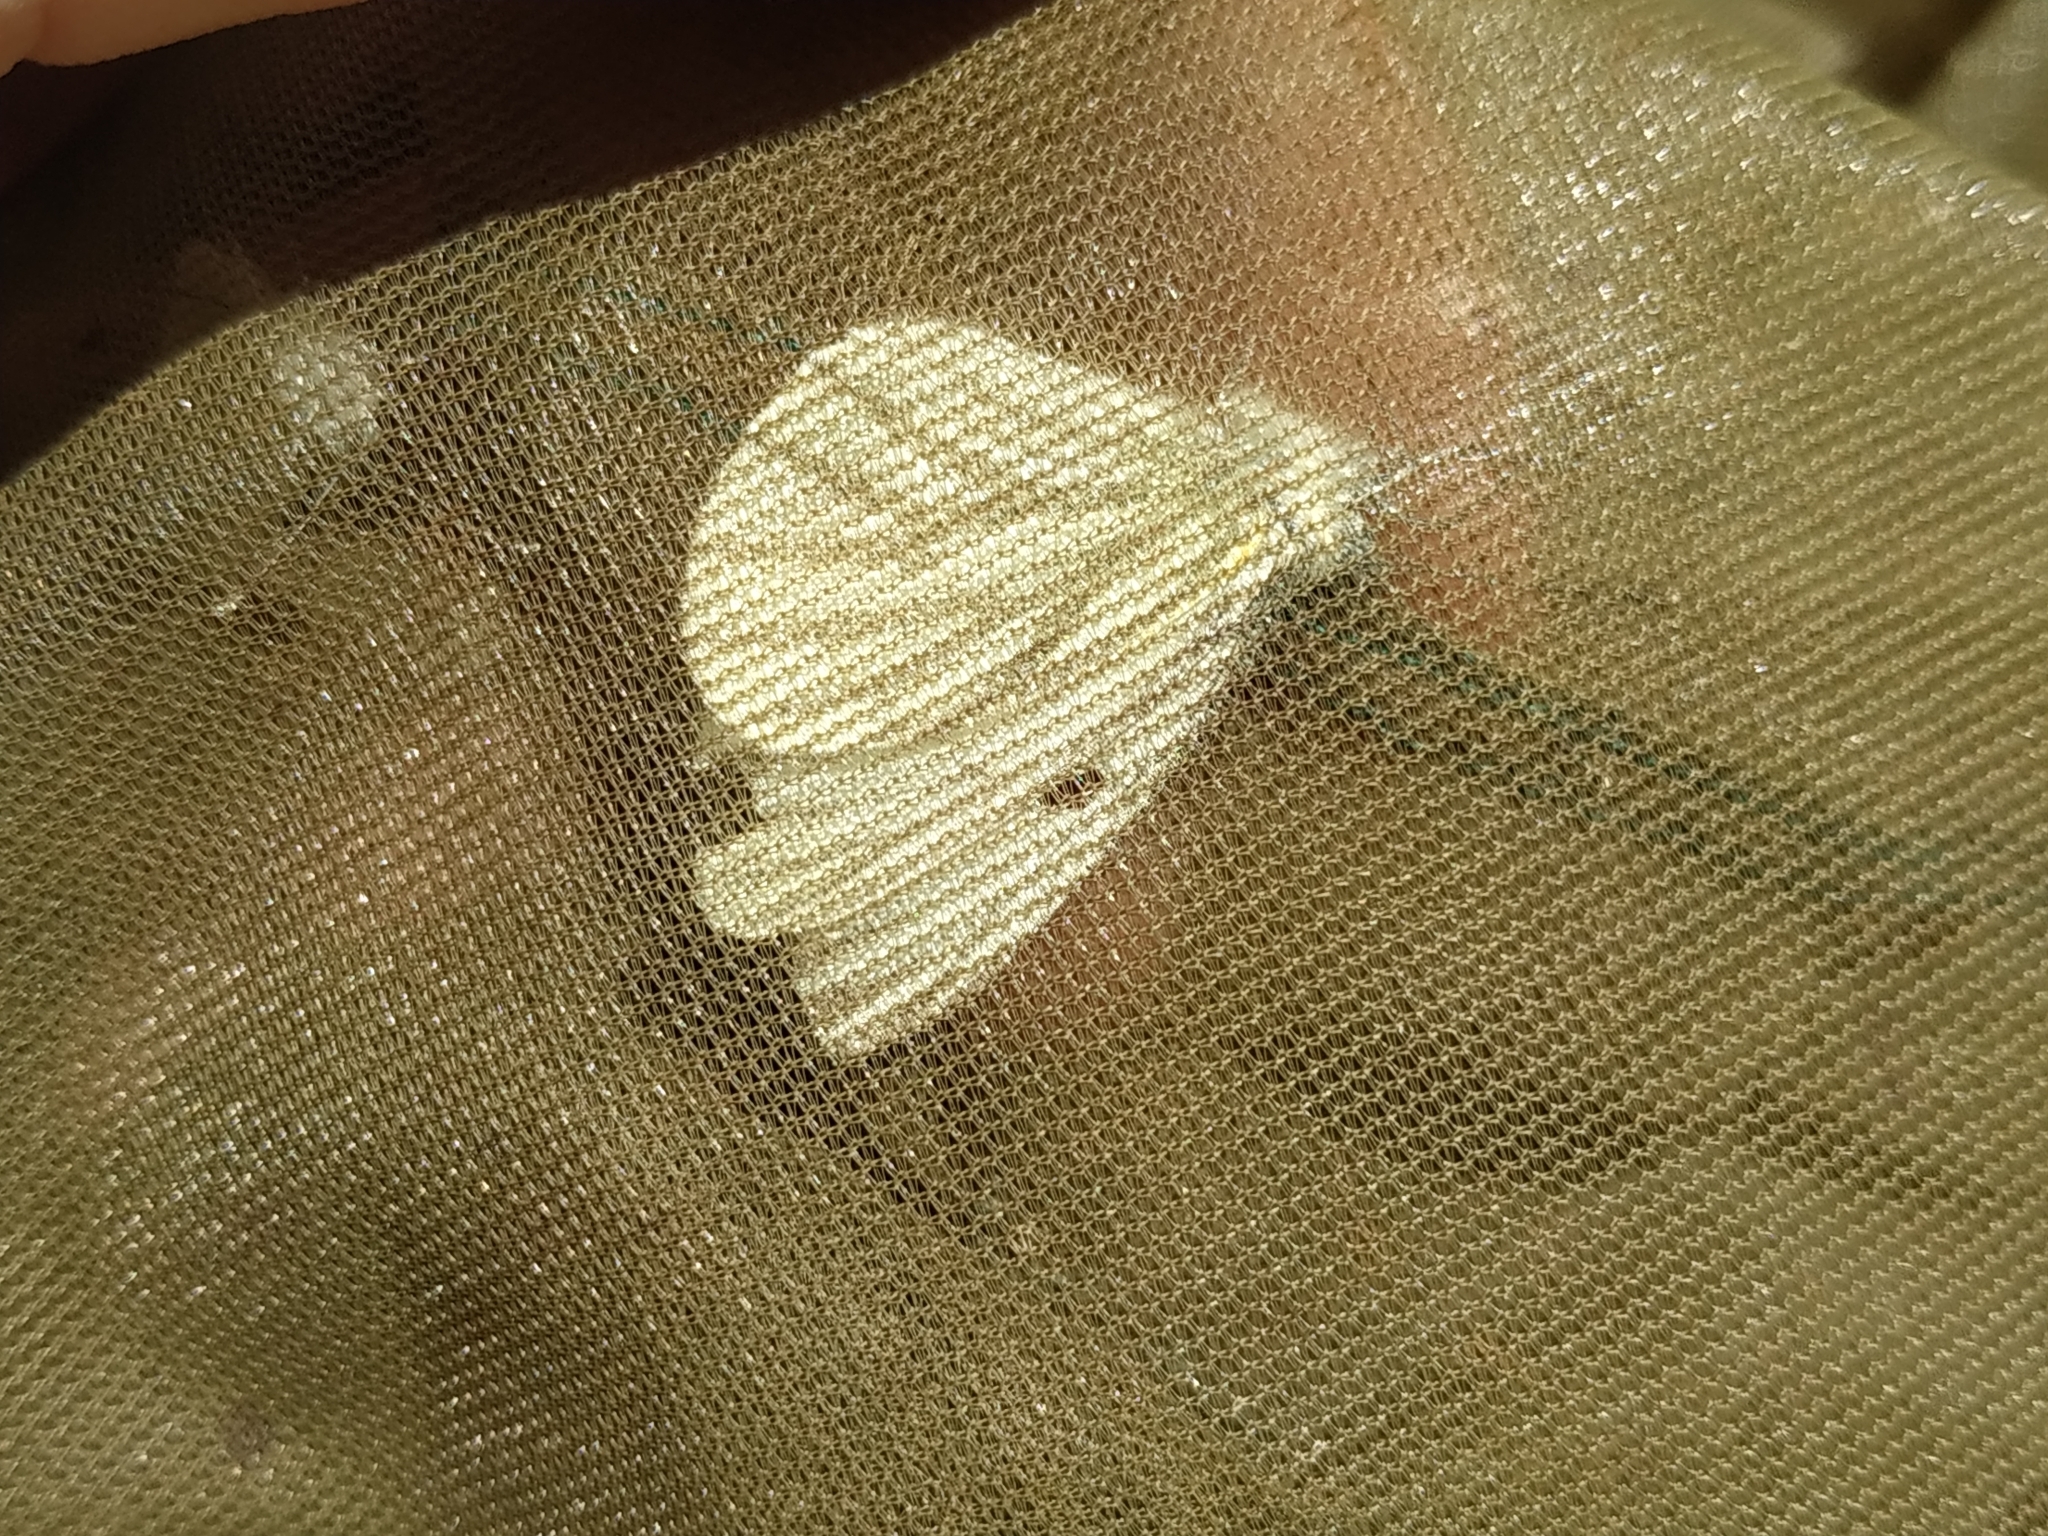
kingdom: Animalia
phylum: Arthropoda
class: Insecta
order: Lepidoptera
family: Pieridae
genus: Pieris
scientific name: Pieris napi
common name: Green-veined white
